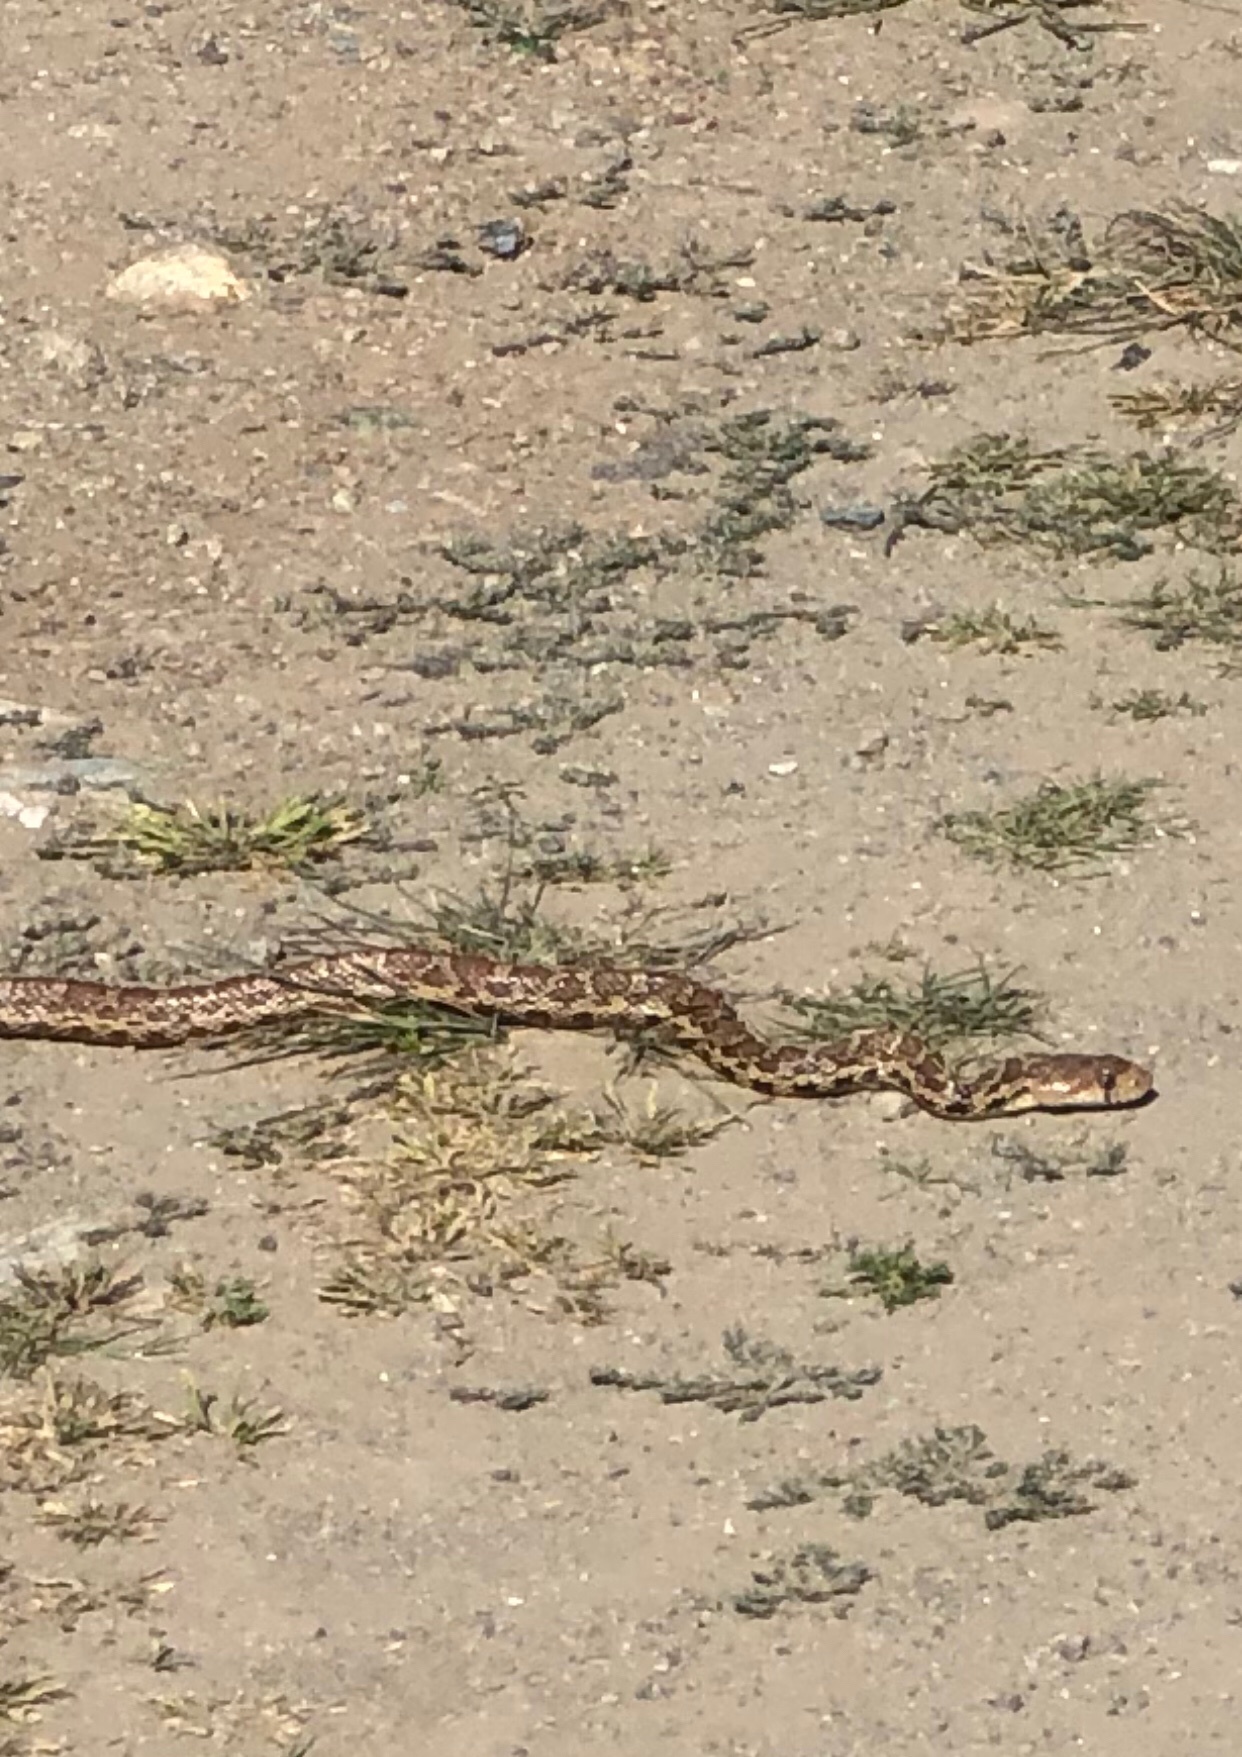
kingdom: Animalia
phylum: Chordata
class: Squamata
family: Colubridae
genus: Pituophis
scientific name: Pituophis catenifer
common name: Gopher snake
